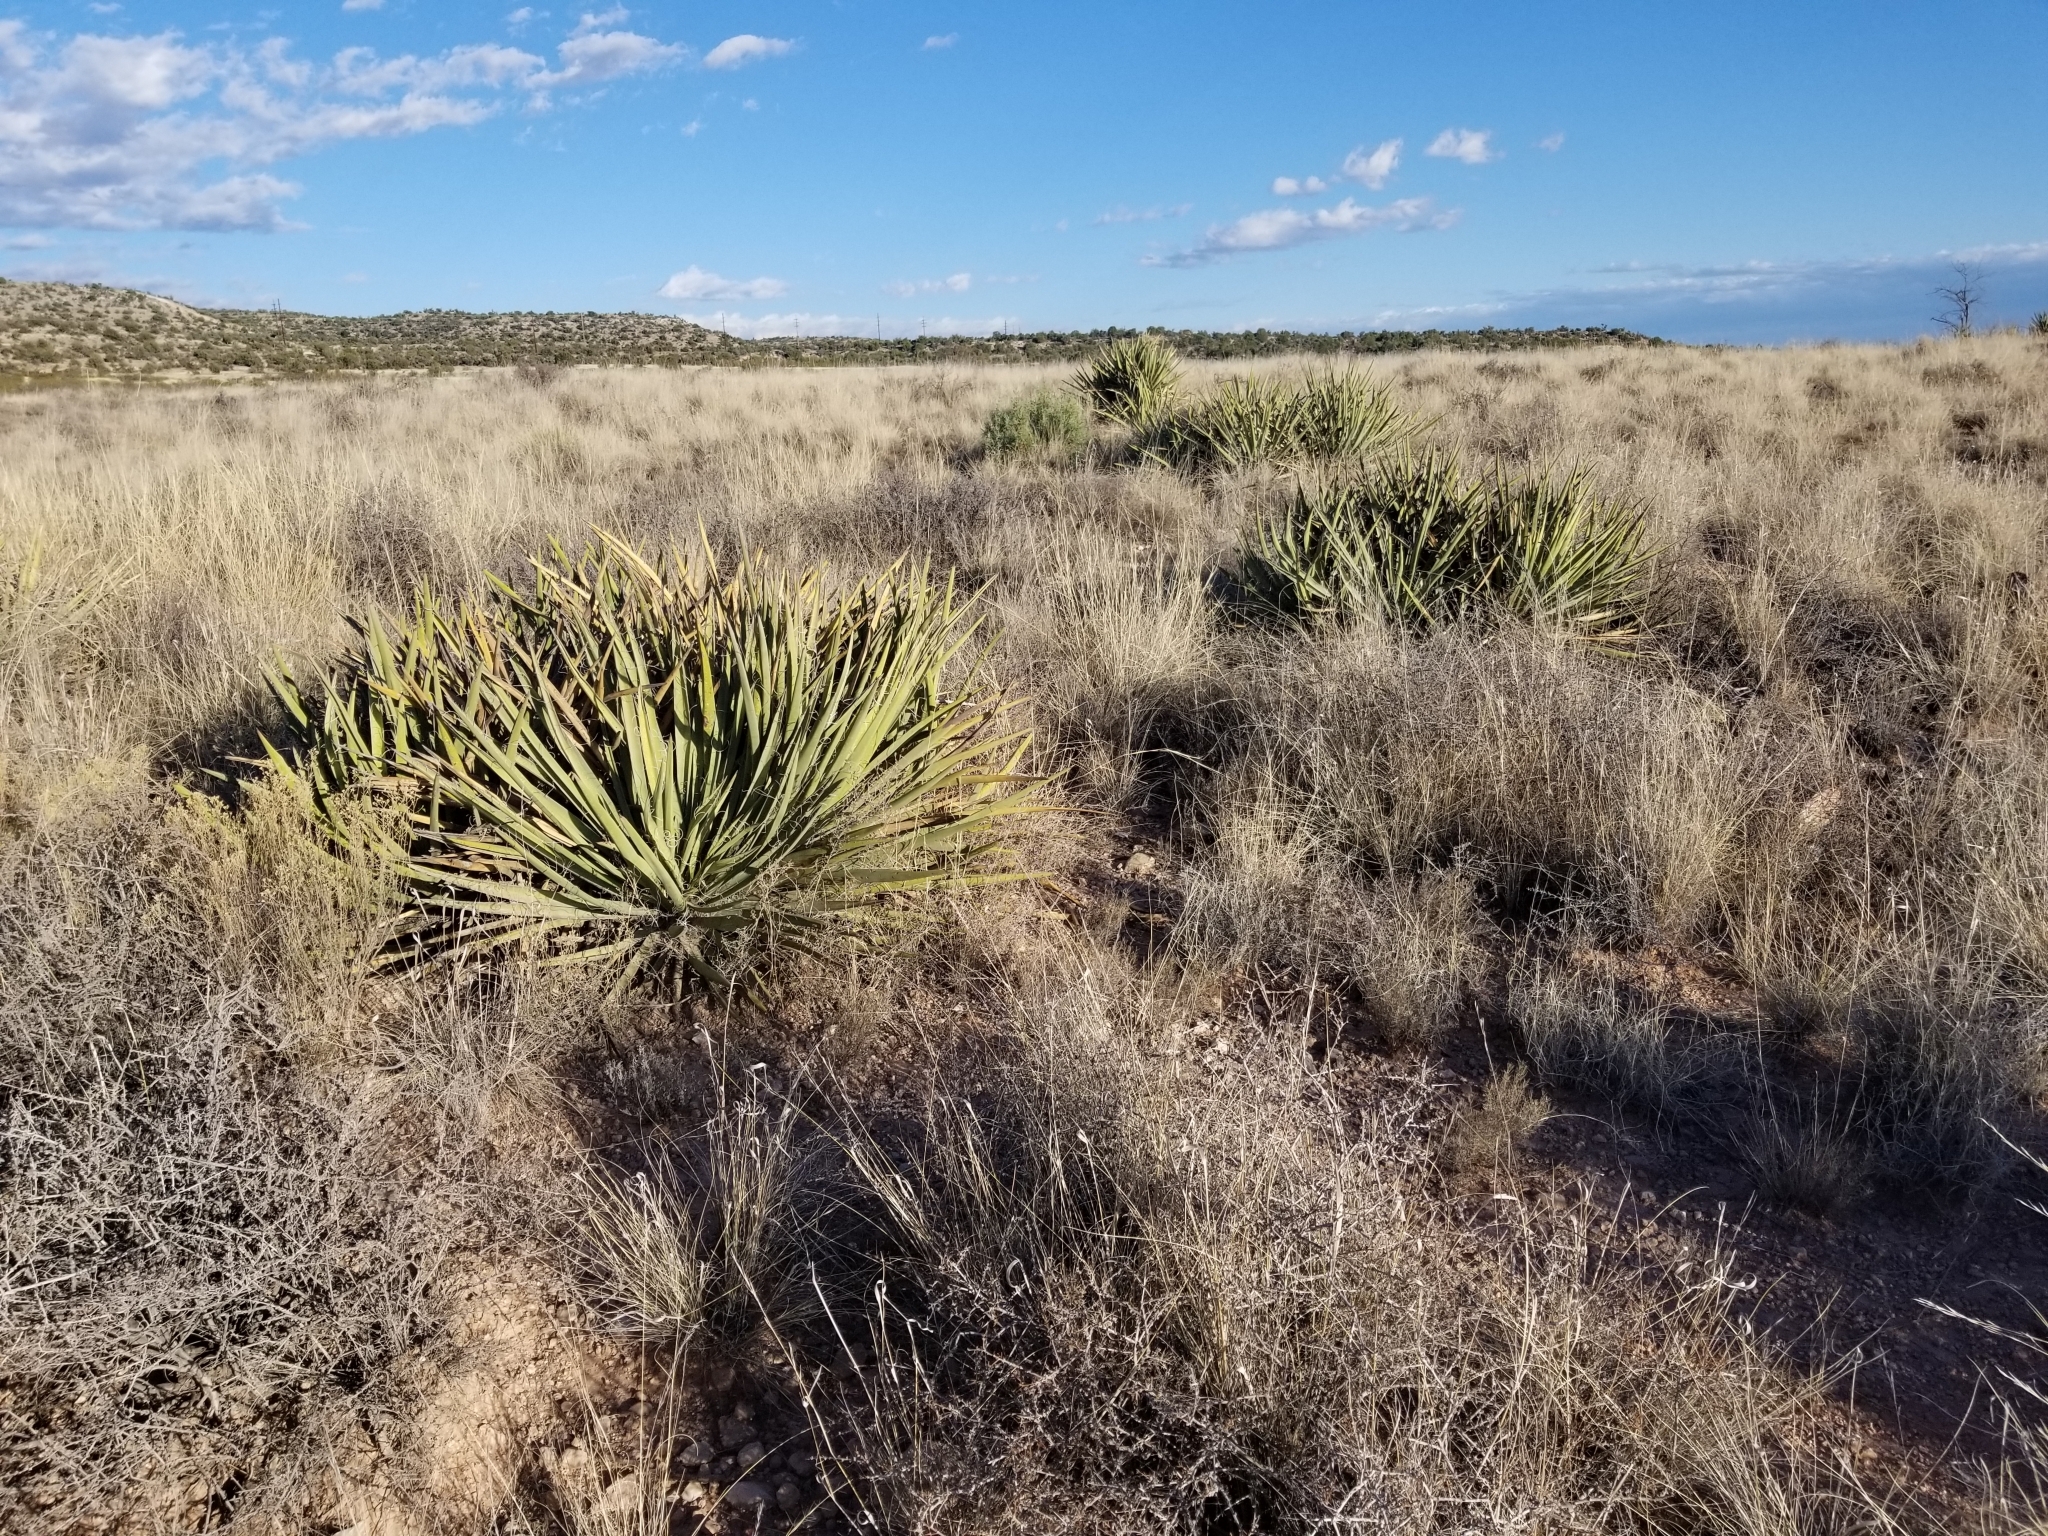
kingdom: Plantae
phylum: Tracheophyta
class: Liliopsida
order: Asparagales
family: Asparagaceae
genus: Yucca
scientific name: Yucca baccata
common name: Banana yucca
